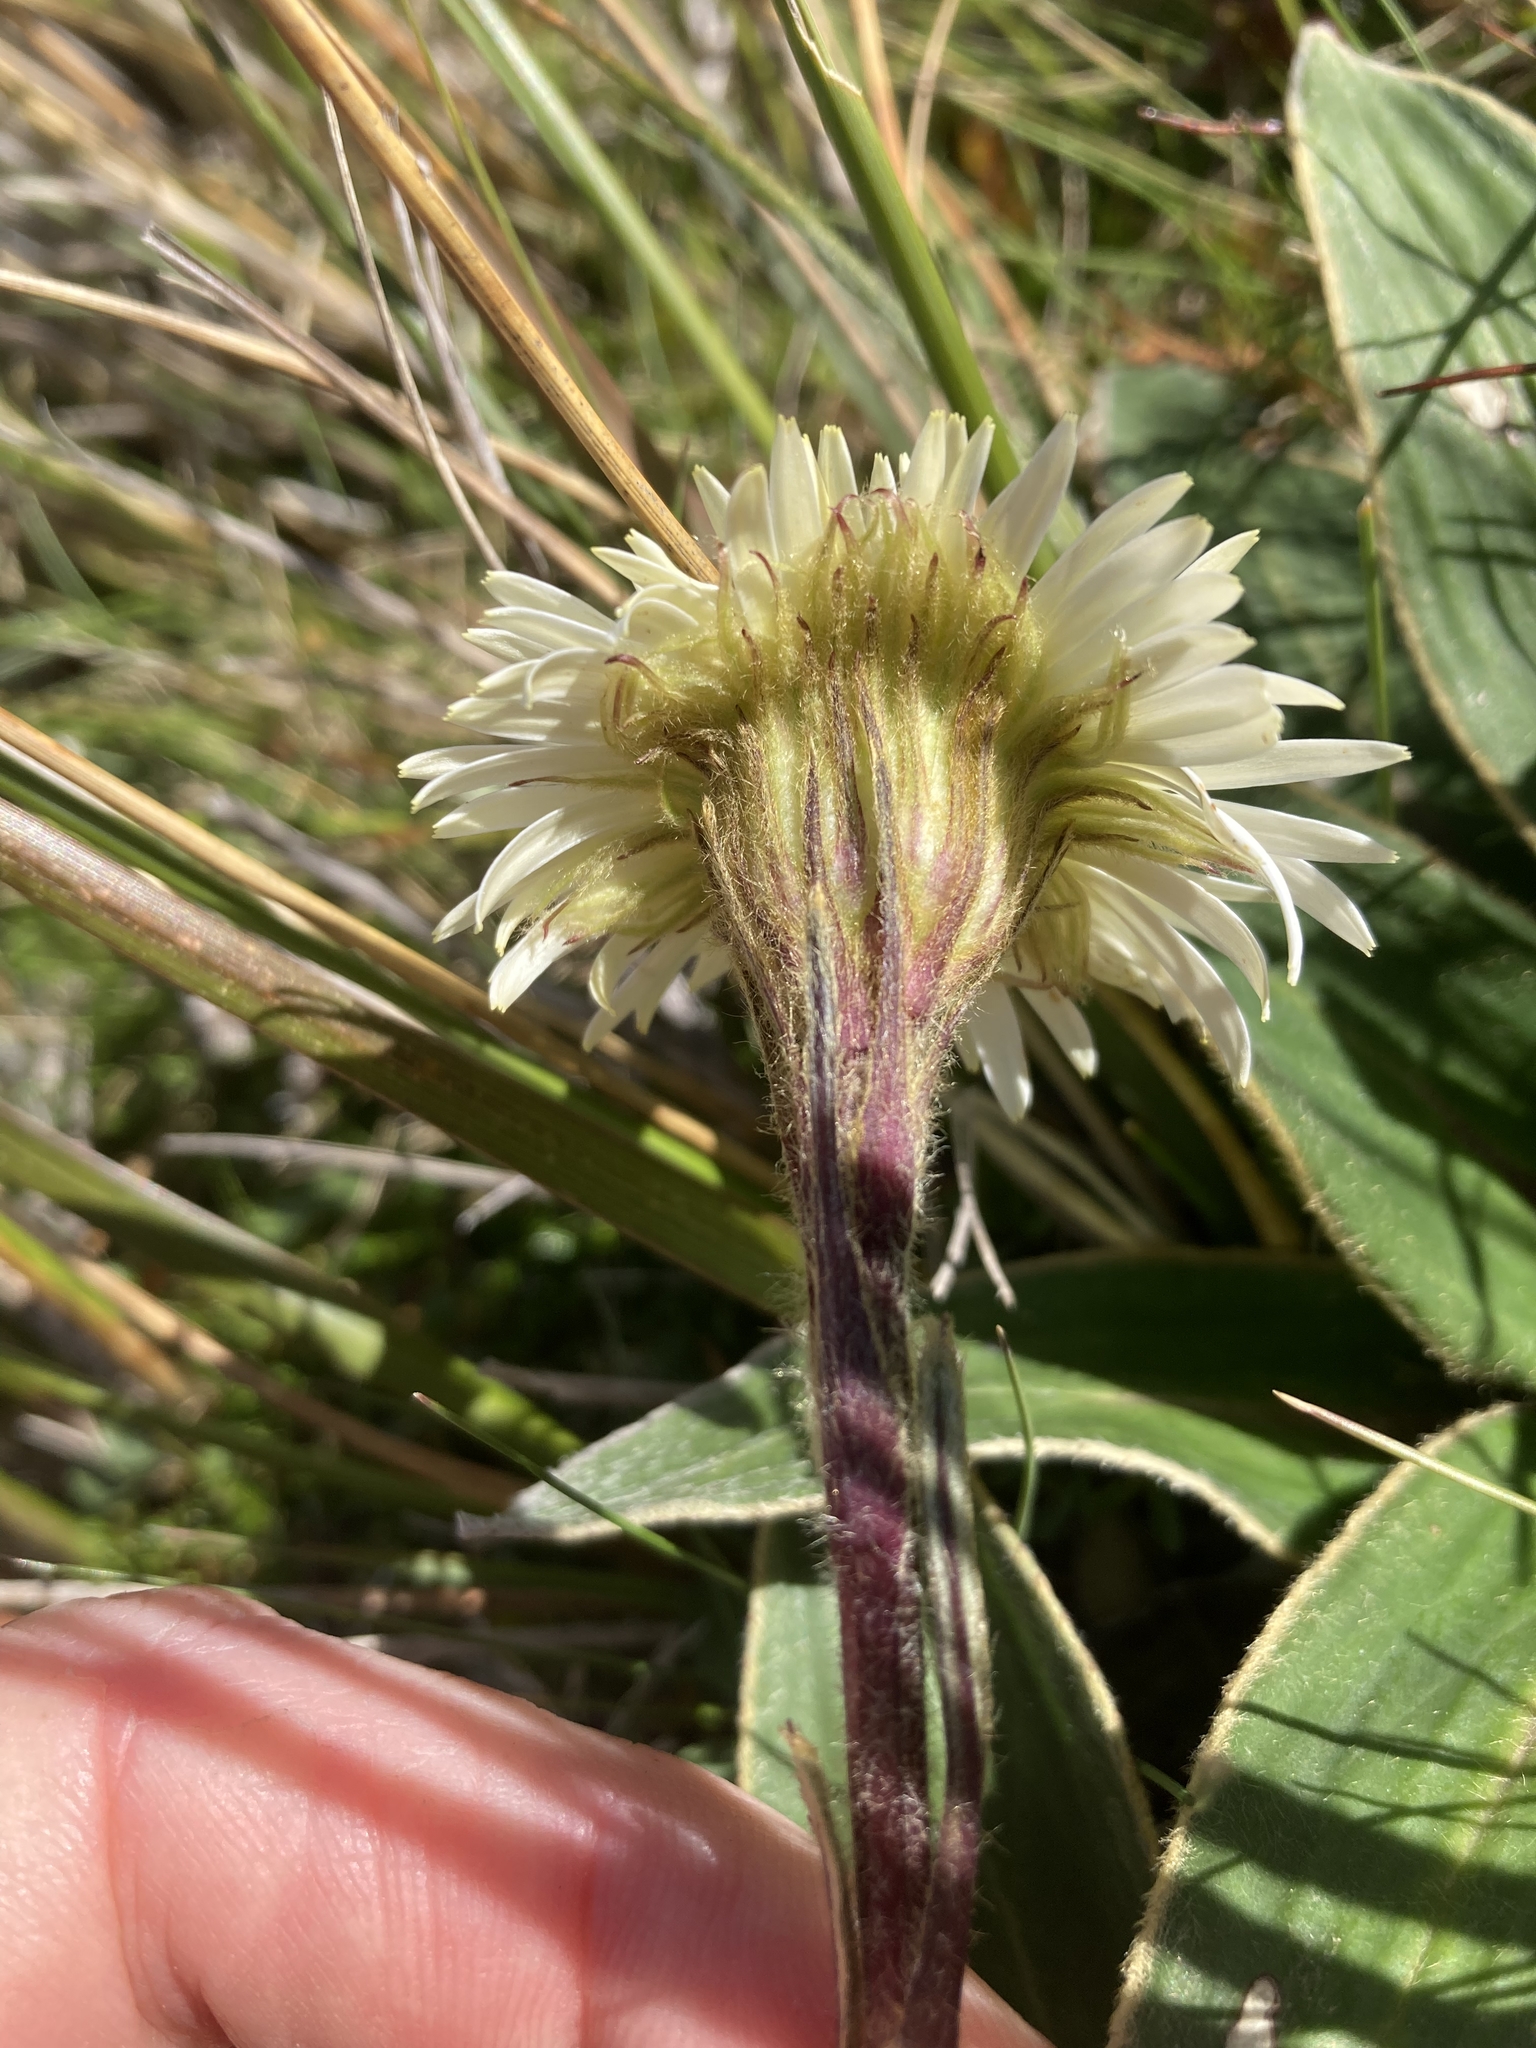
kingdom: Plantae
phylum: Tracheophyta
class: Magnoliopsida
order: Asterales
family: Asteraceae
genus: Celmisia
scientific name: Celmisia verbascifolia
